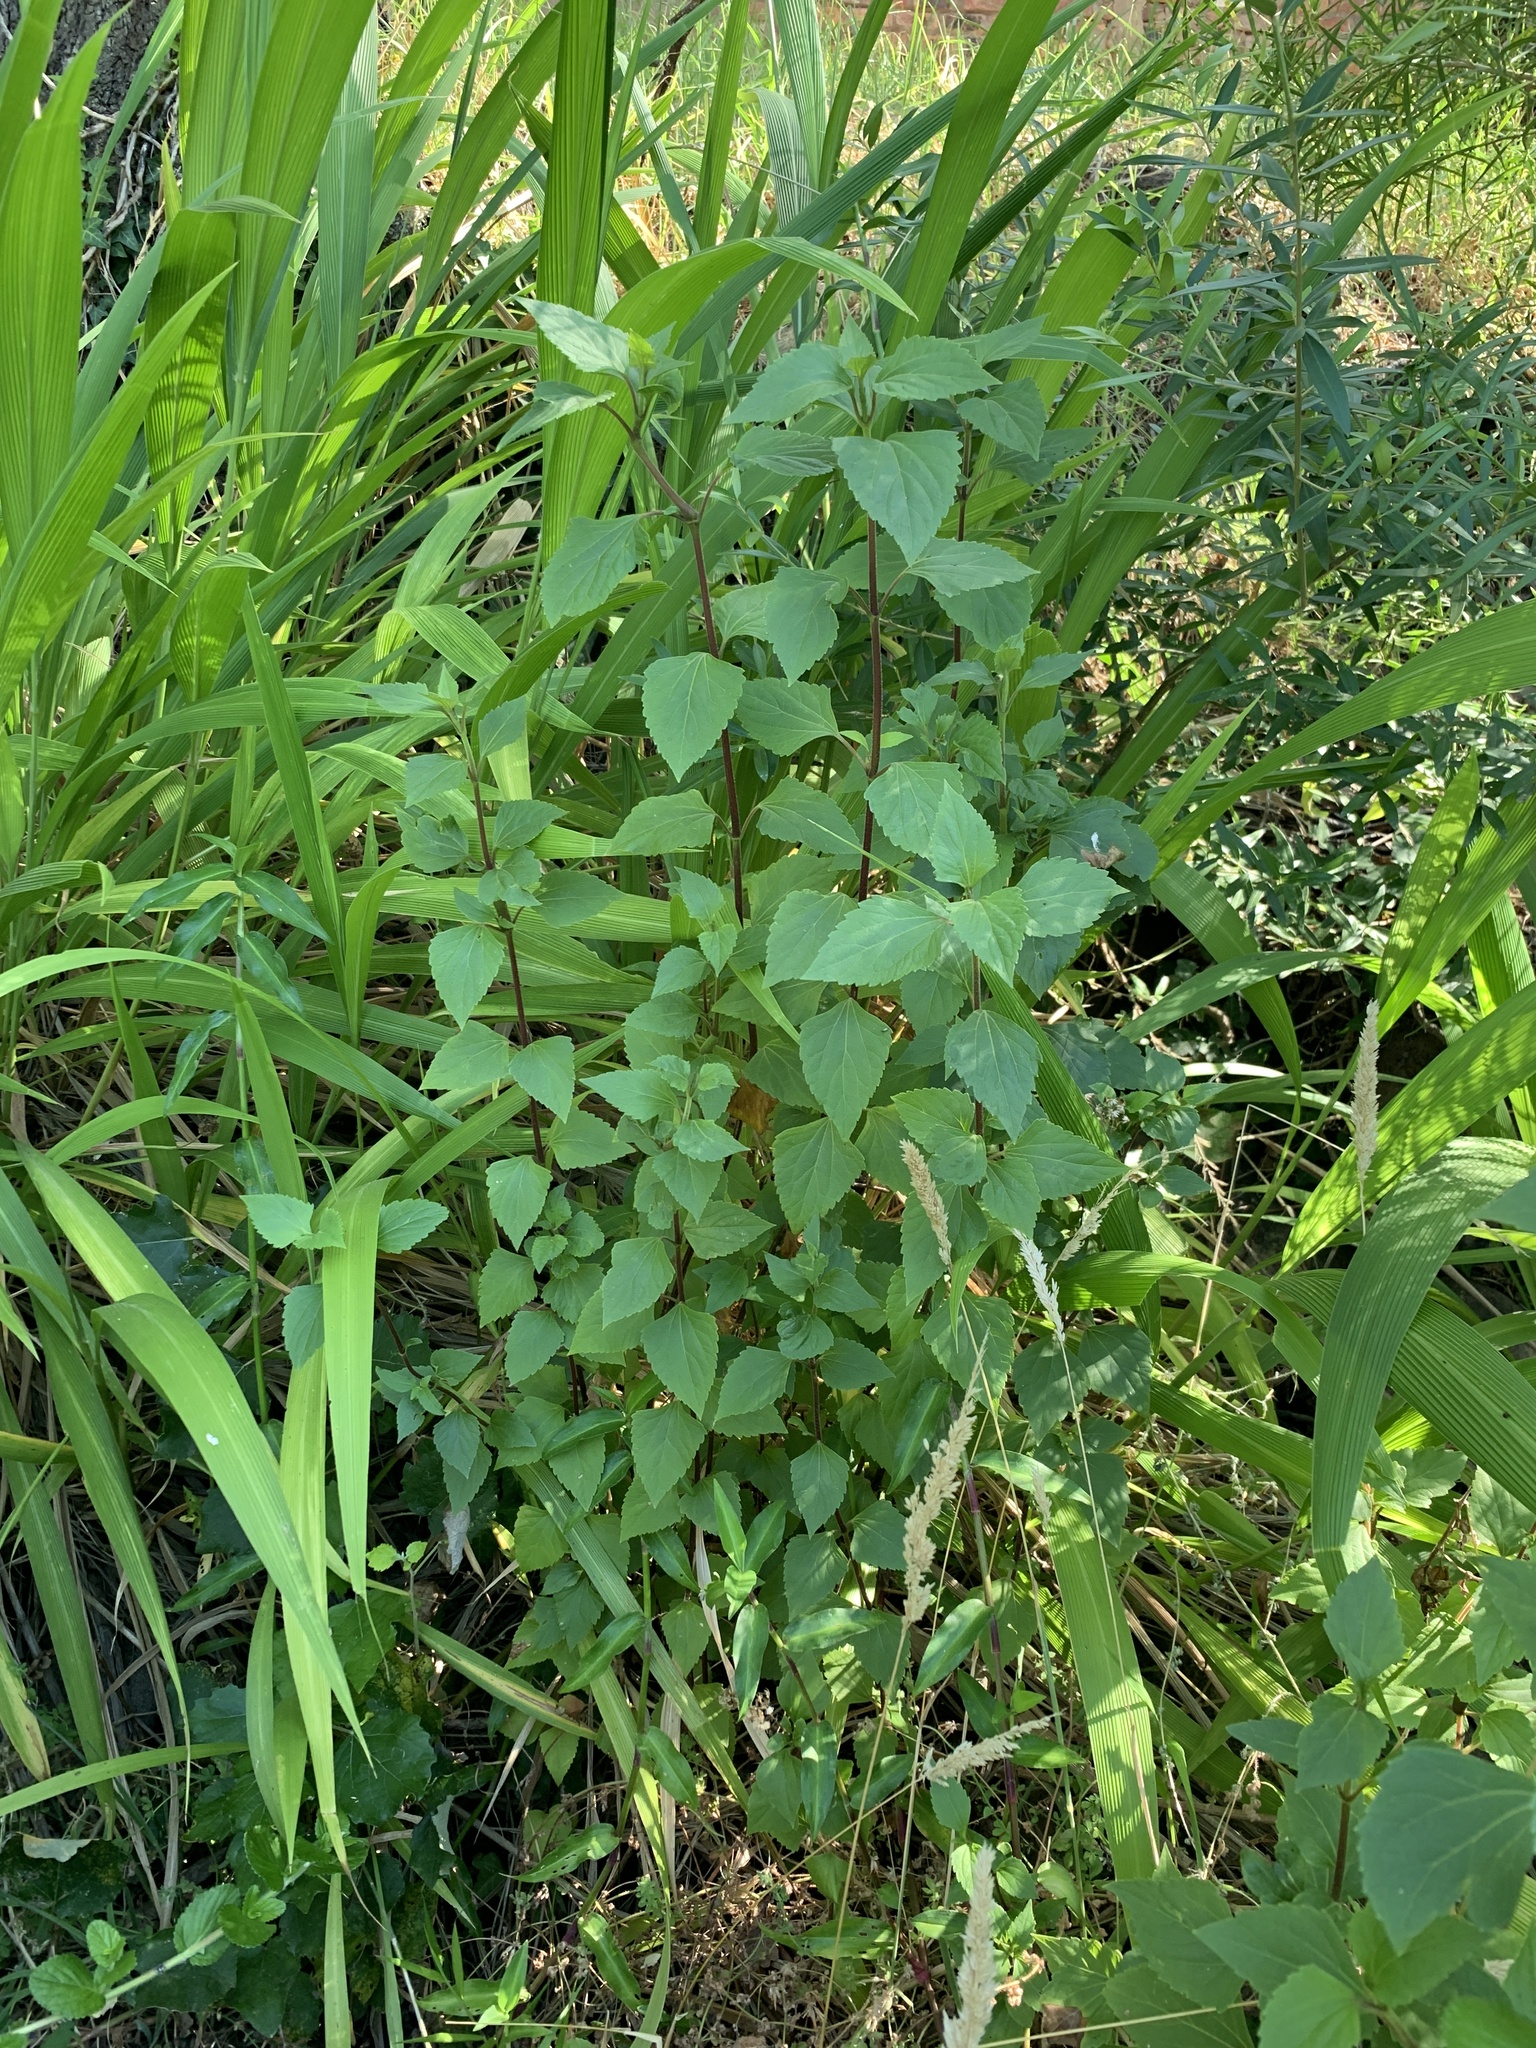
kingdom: Plantae
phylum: Tracheophyta
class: Magnoliopsida
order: Asterales
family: Asteraceae
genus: Ageratina
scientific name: Ageratina adenophora
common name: Sticky snakeroot
